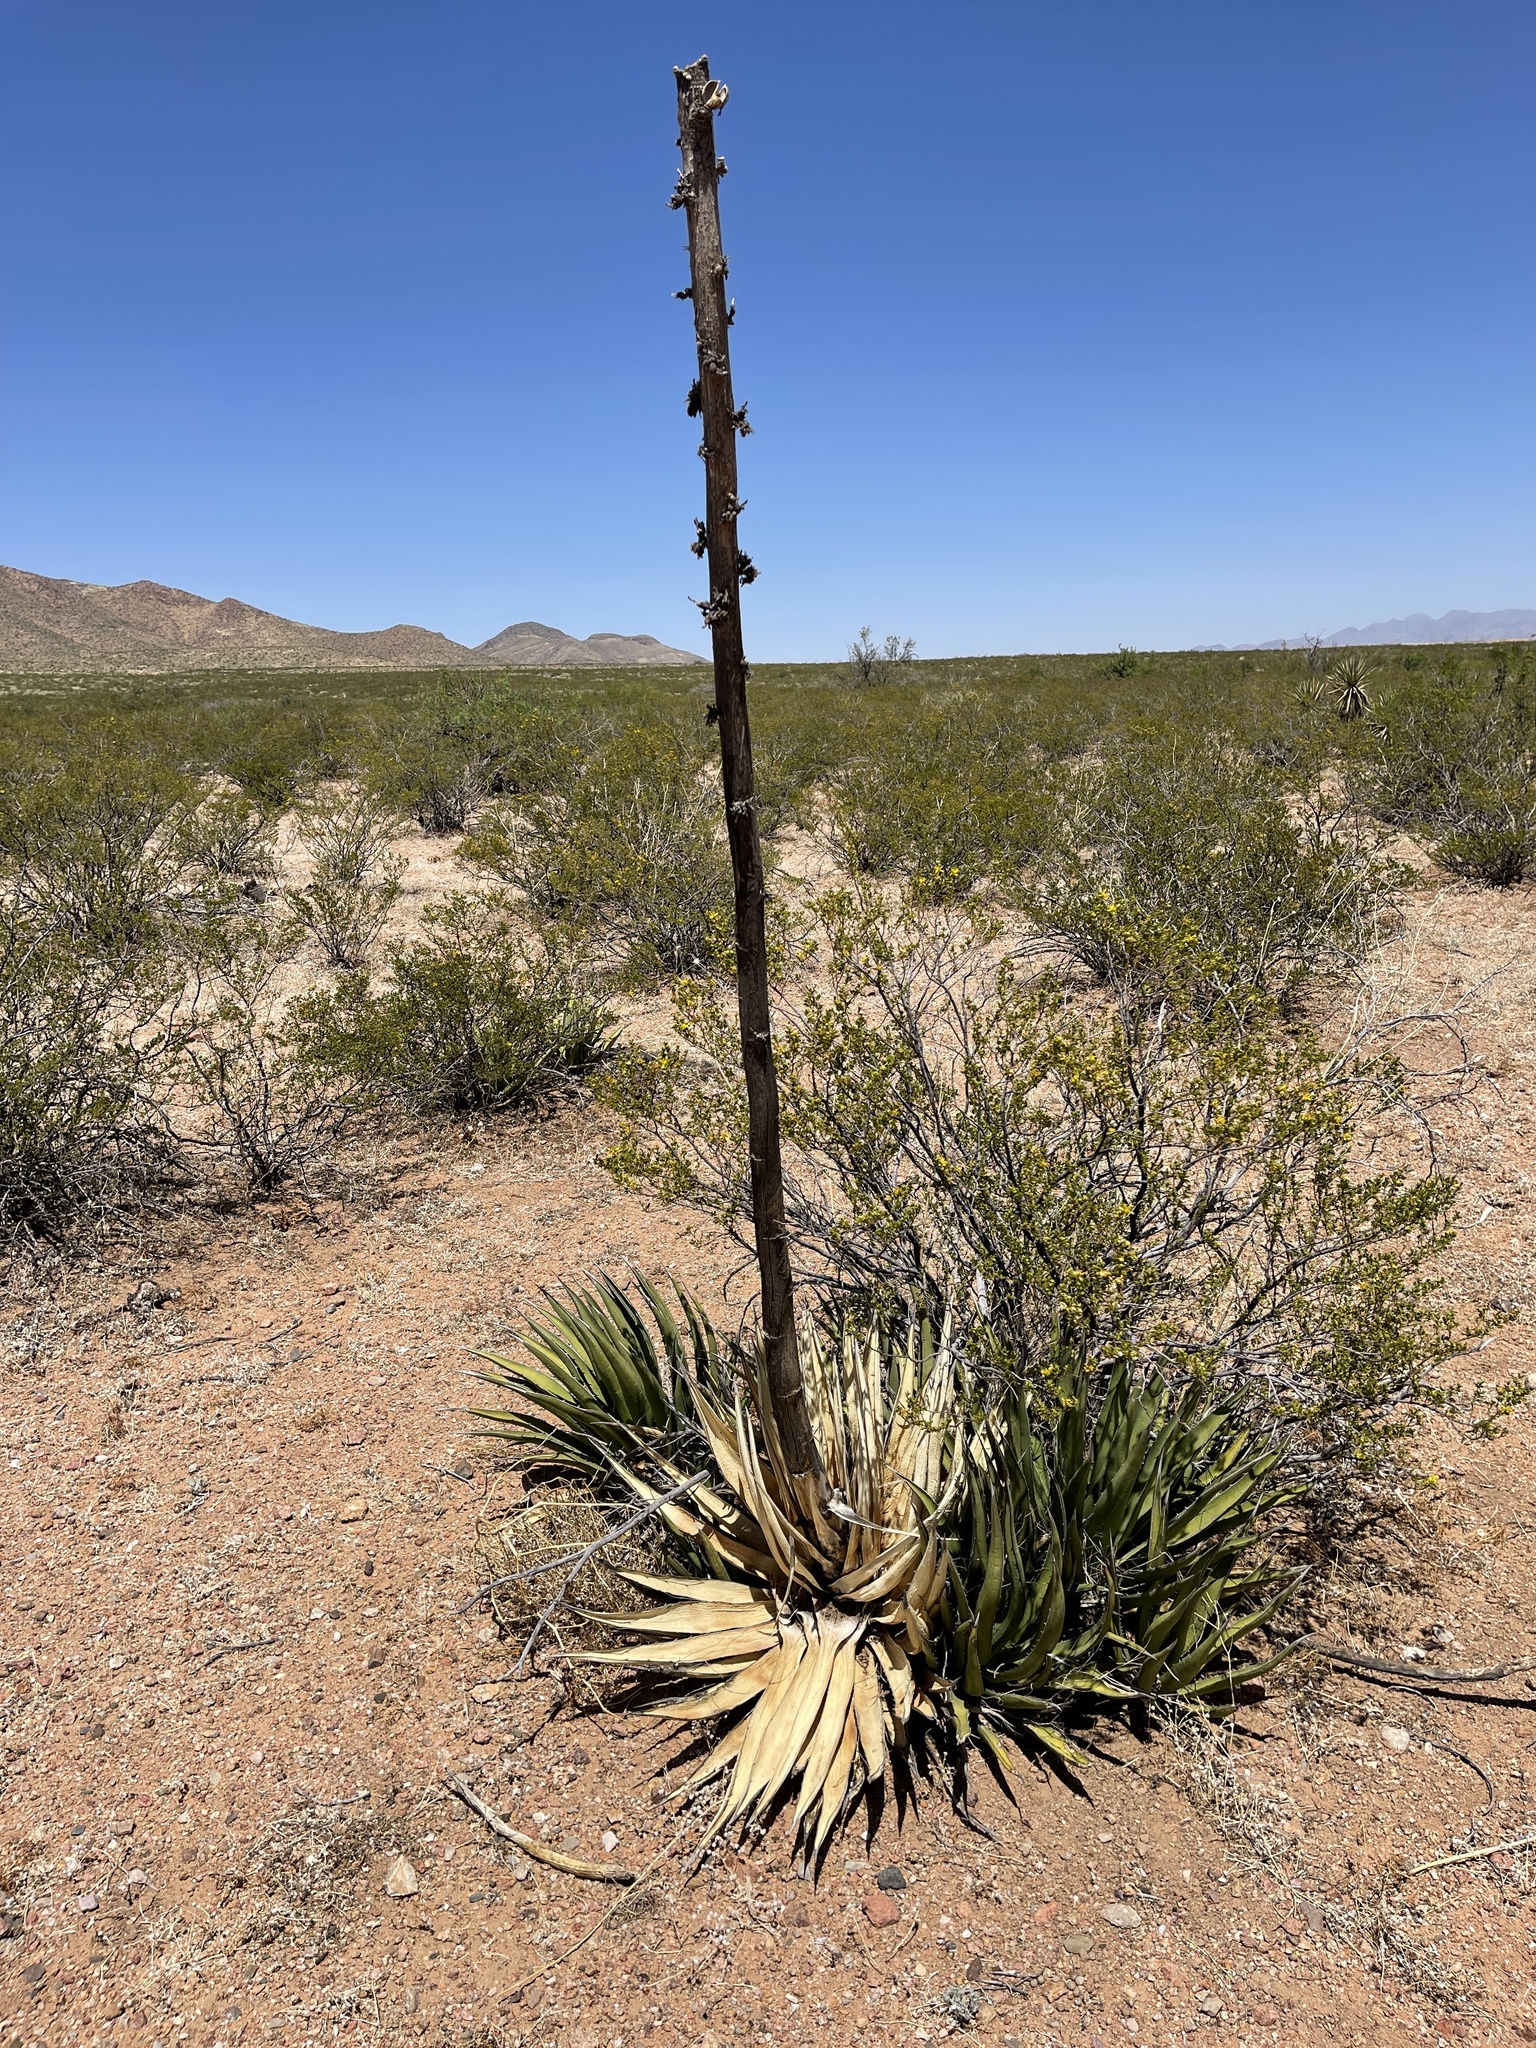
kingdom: Plantae
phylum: Tracheophyta
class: Liliopsida
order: Asparagales
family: Asparagaceae
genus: Agave
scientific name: Agave lechuguilla
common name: Lecheguilla agave
